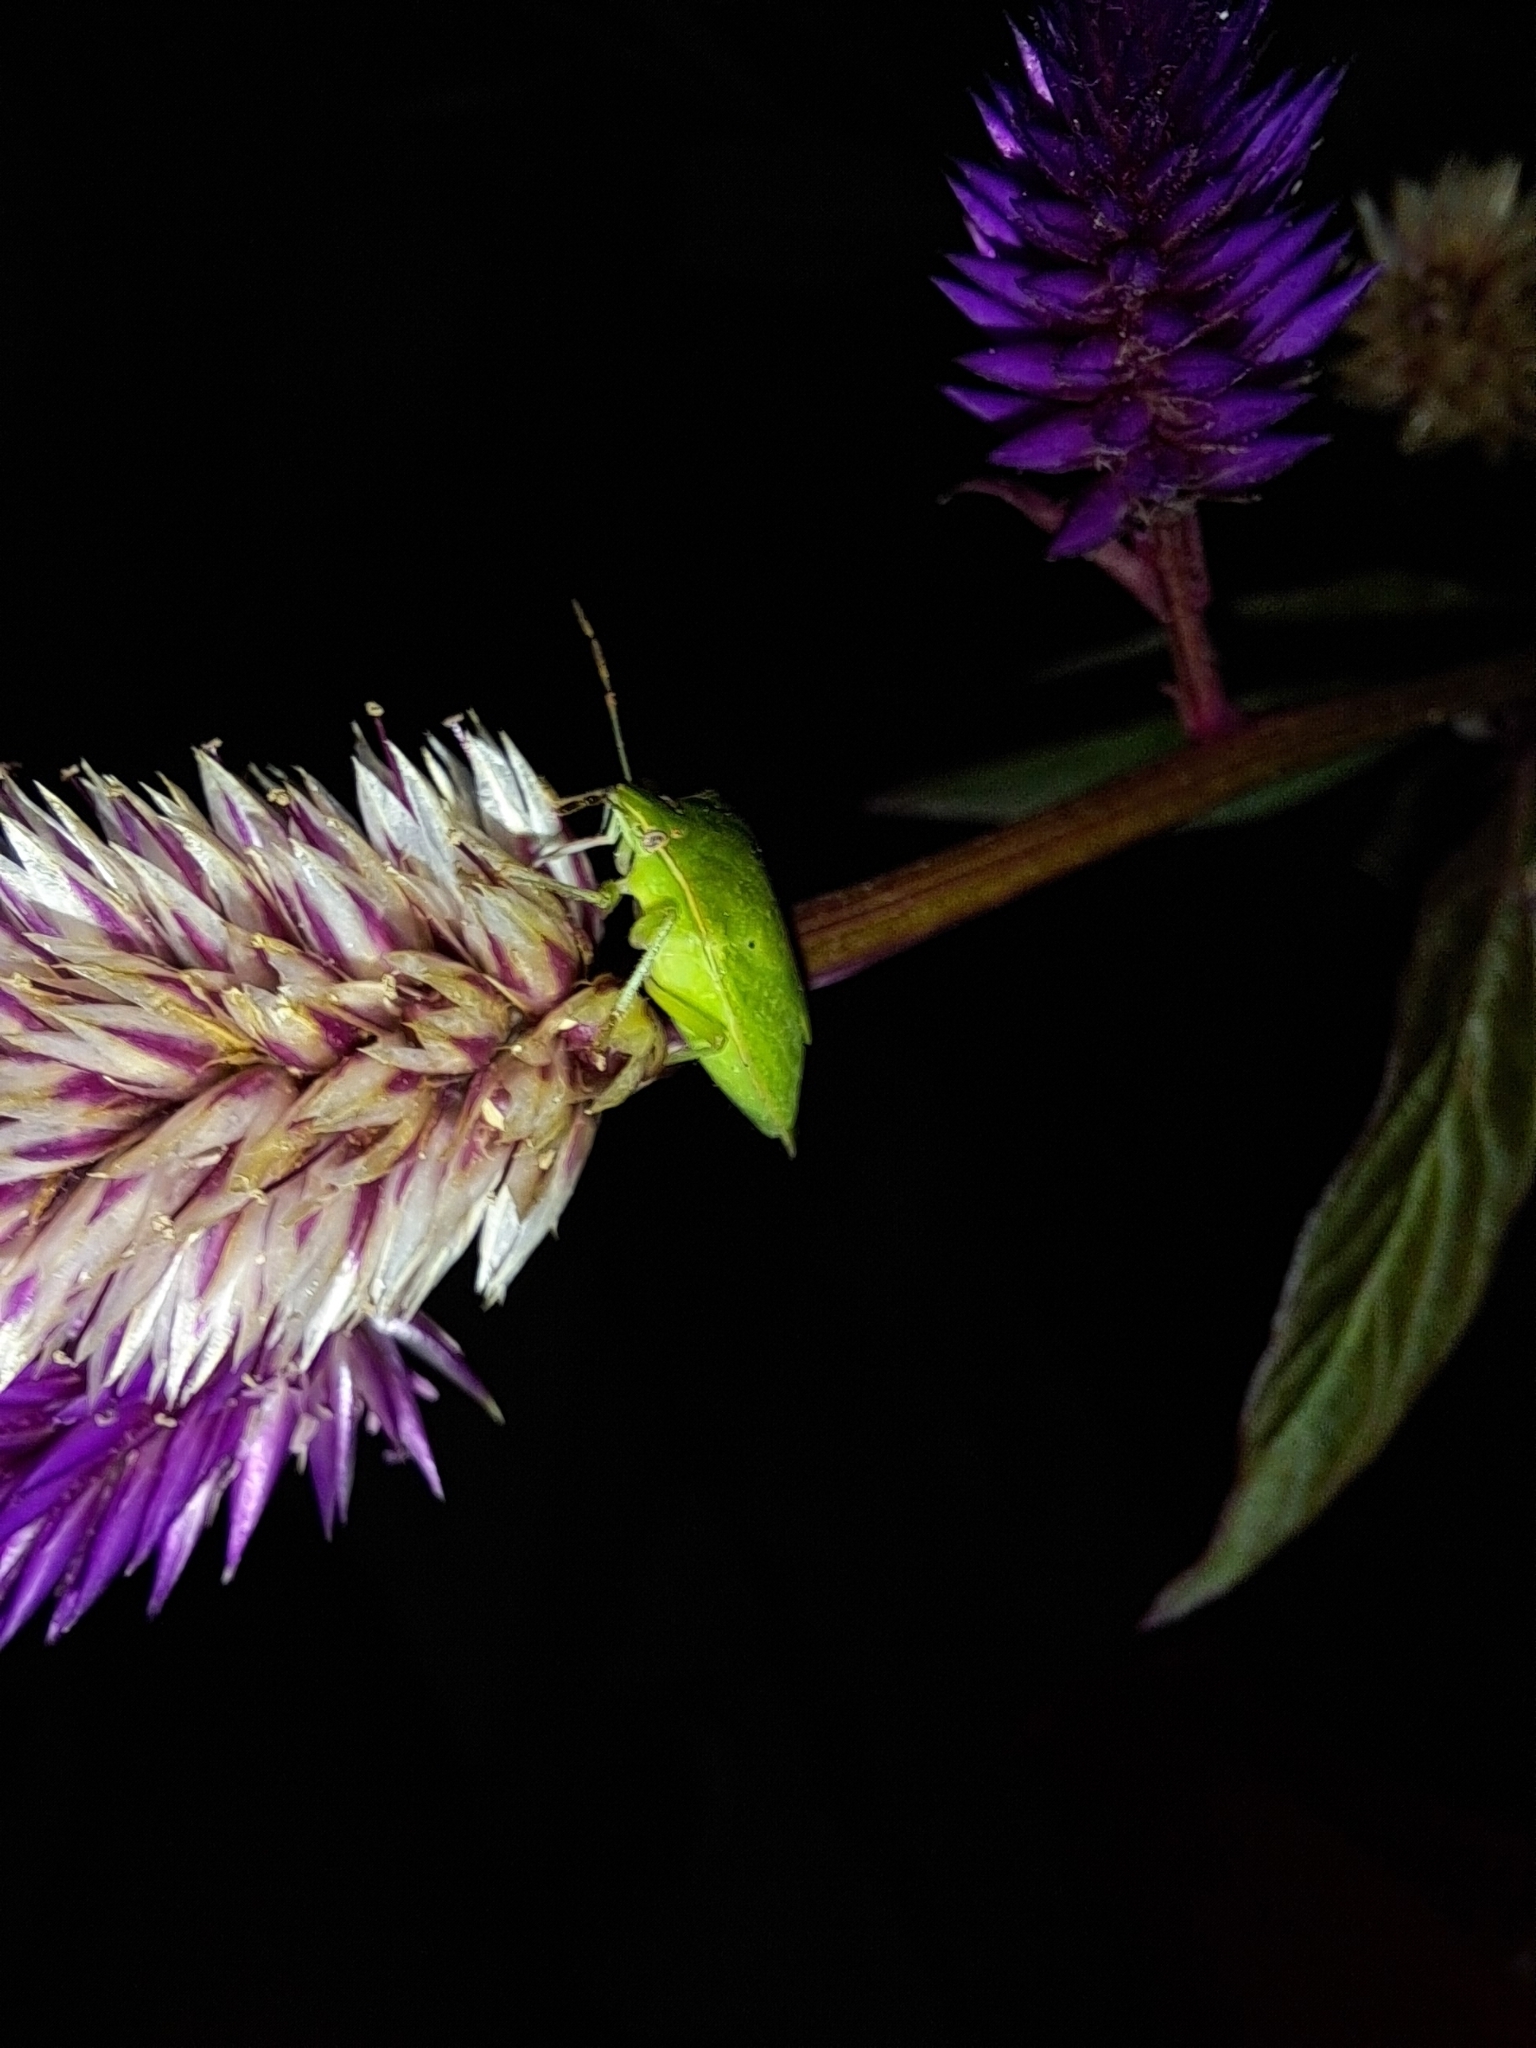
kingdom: Animalia
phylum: Arthropoda
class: Insecta
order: Hemiptera
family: Pentatomidae
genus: Nezara
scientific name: Nezara viridula
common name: Southern green stink bug
